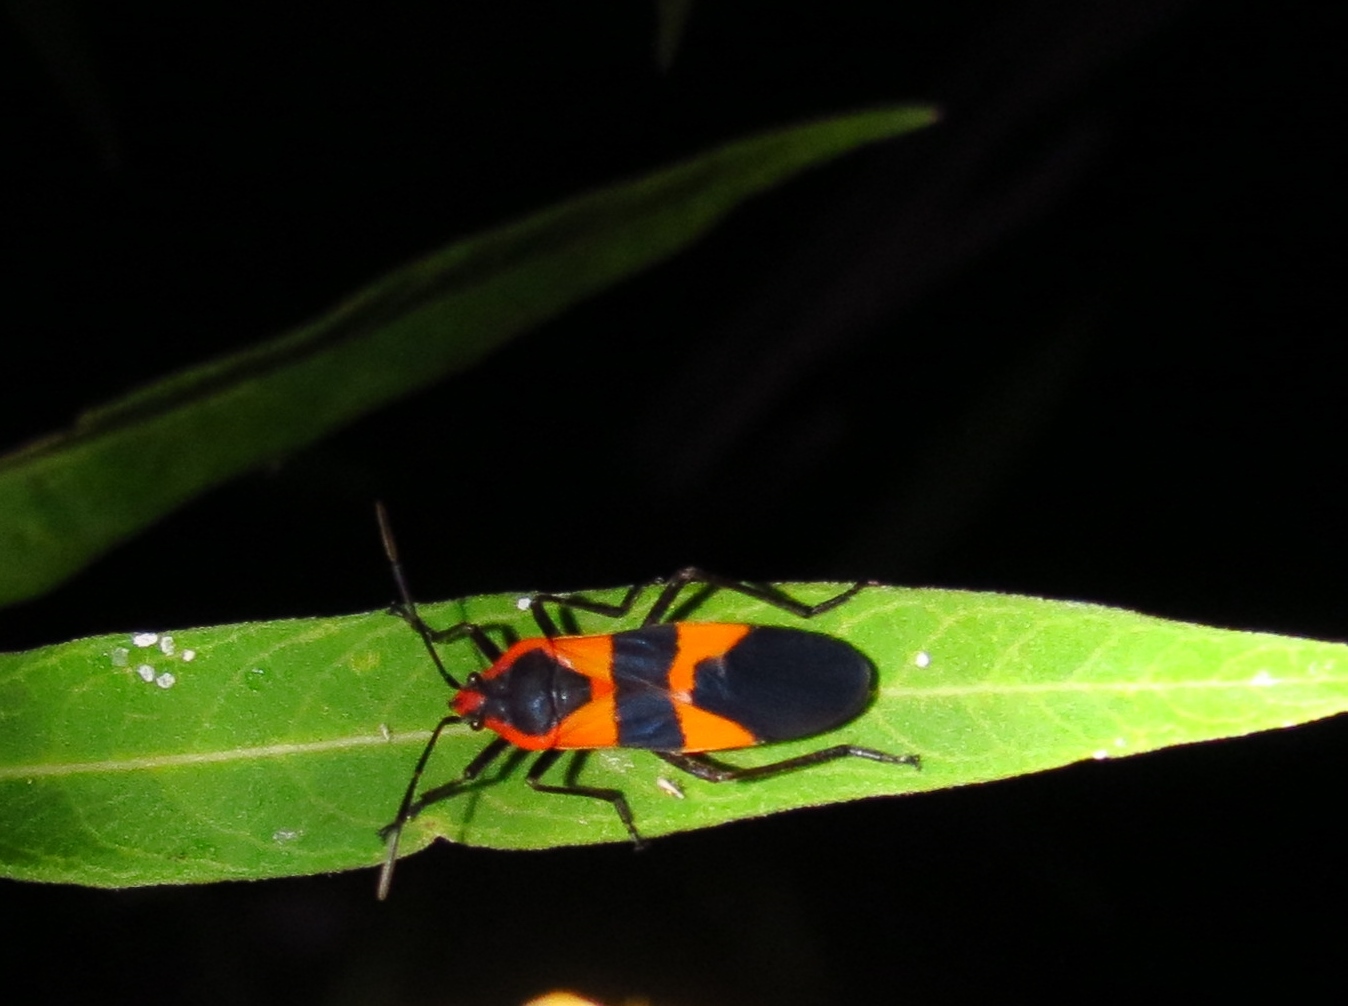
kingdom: Animalia
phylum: Arthropoda
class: Insecta
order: Hemiptera
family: Lygaeidae
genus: Oncopeltus
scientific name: Oncopeltus fasciatus
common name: Large milkweed bug
